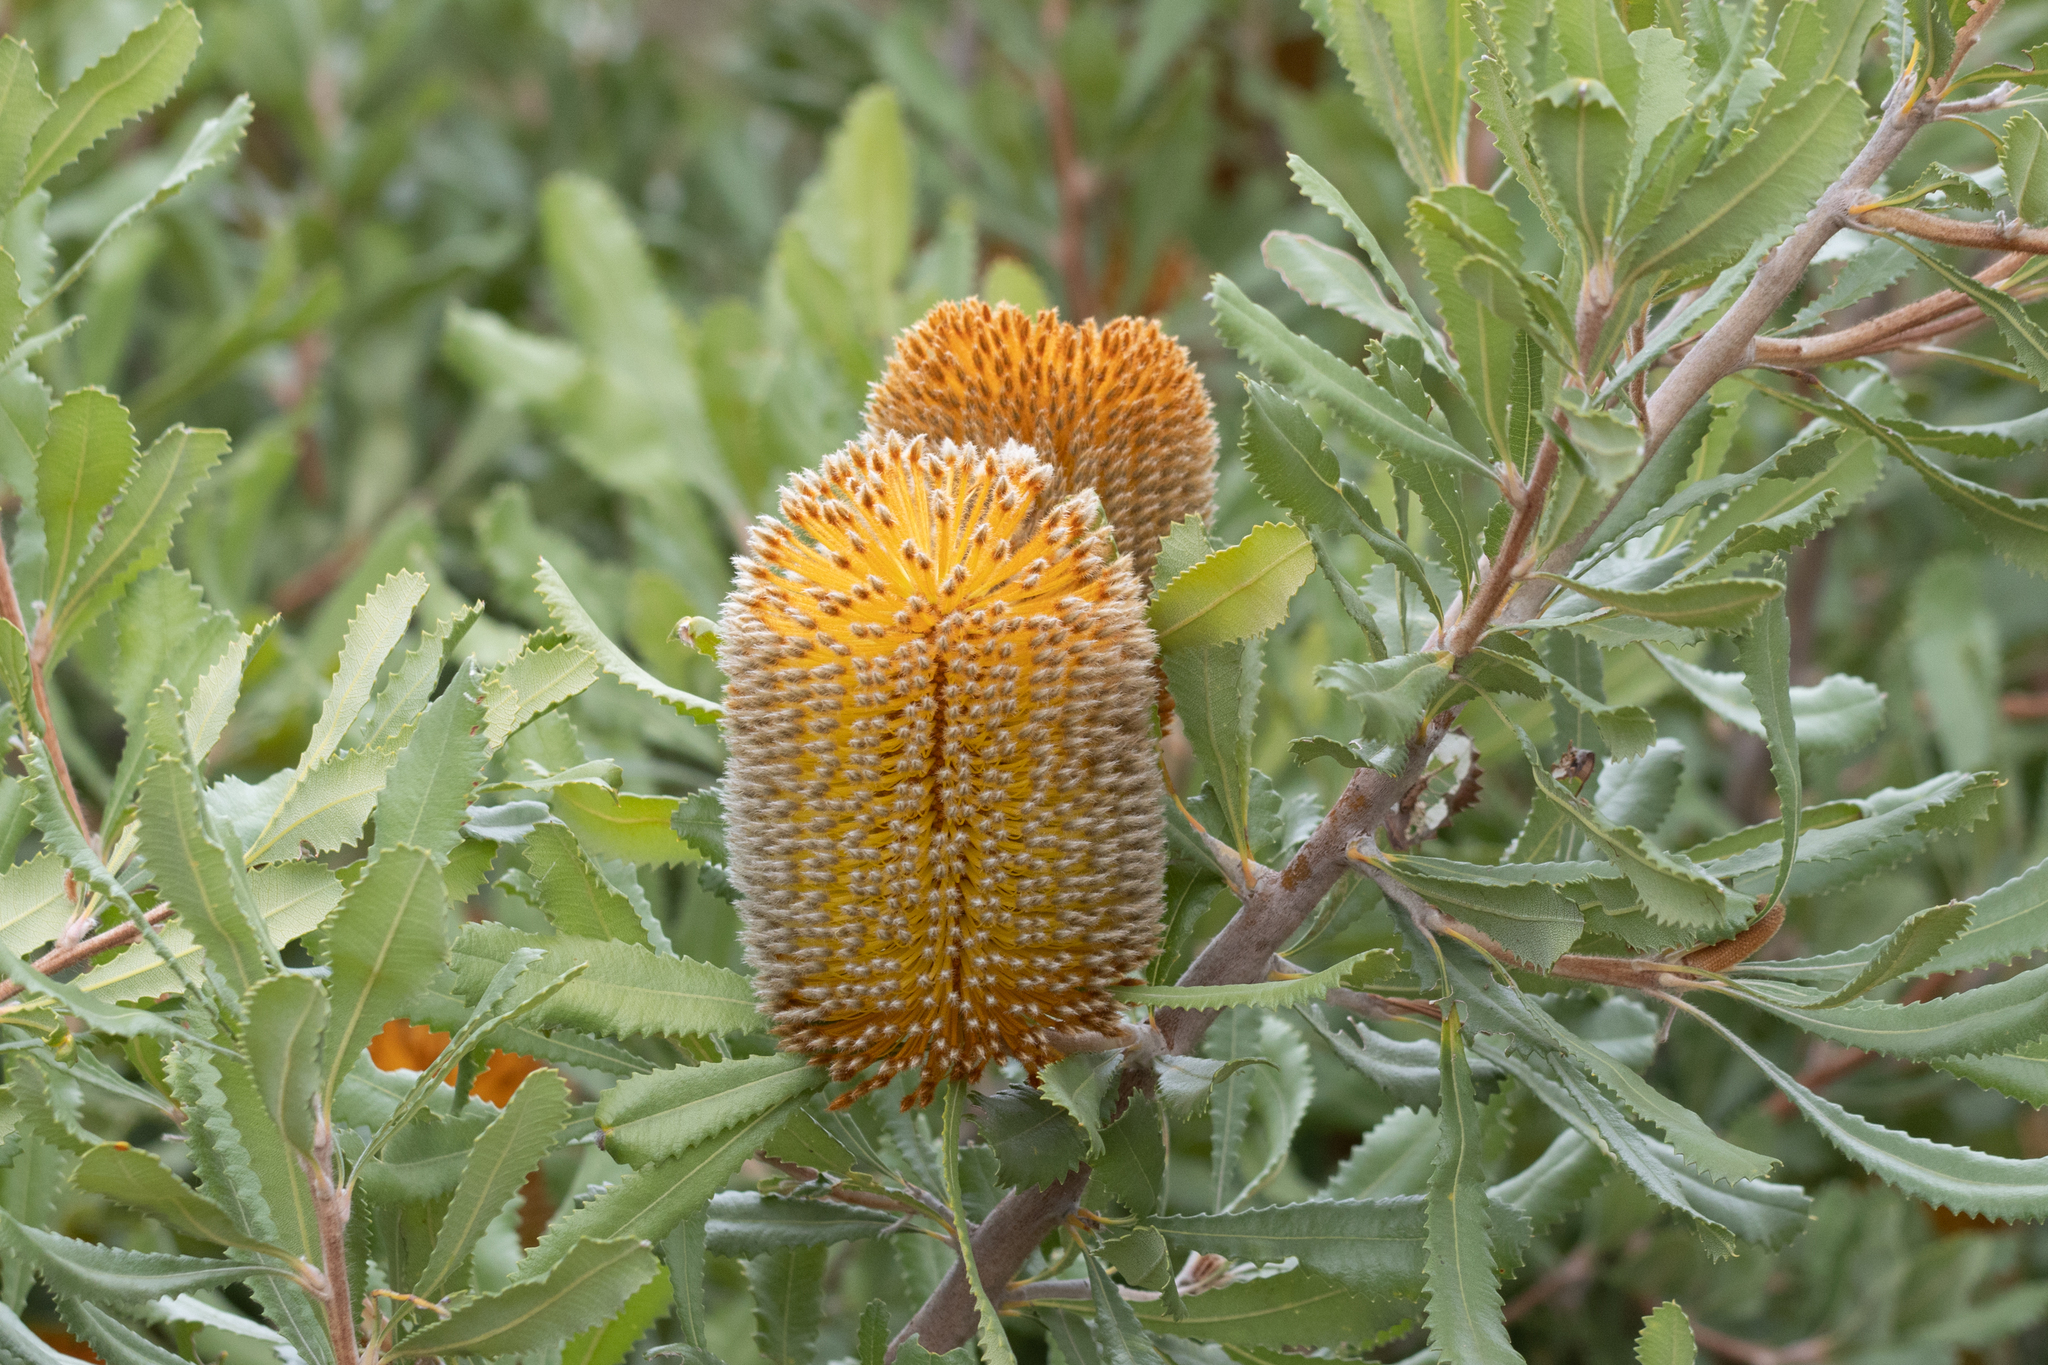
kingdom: Plantae
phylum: Tracheophyta
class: Magnoliopsida
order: Proteales
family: Proteaceae
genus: Banksia
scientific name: Banksia ornata
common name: Desert banksia
